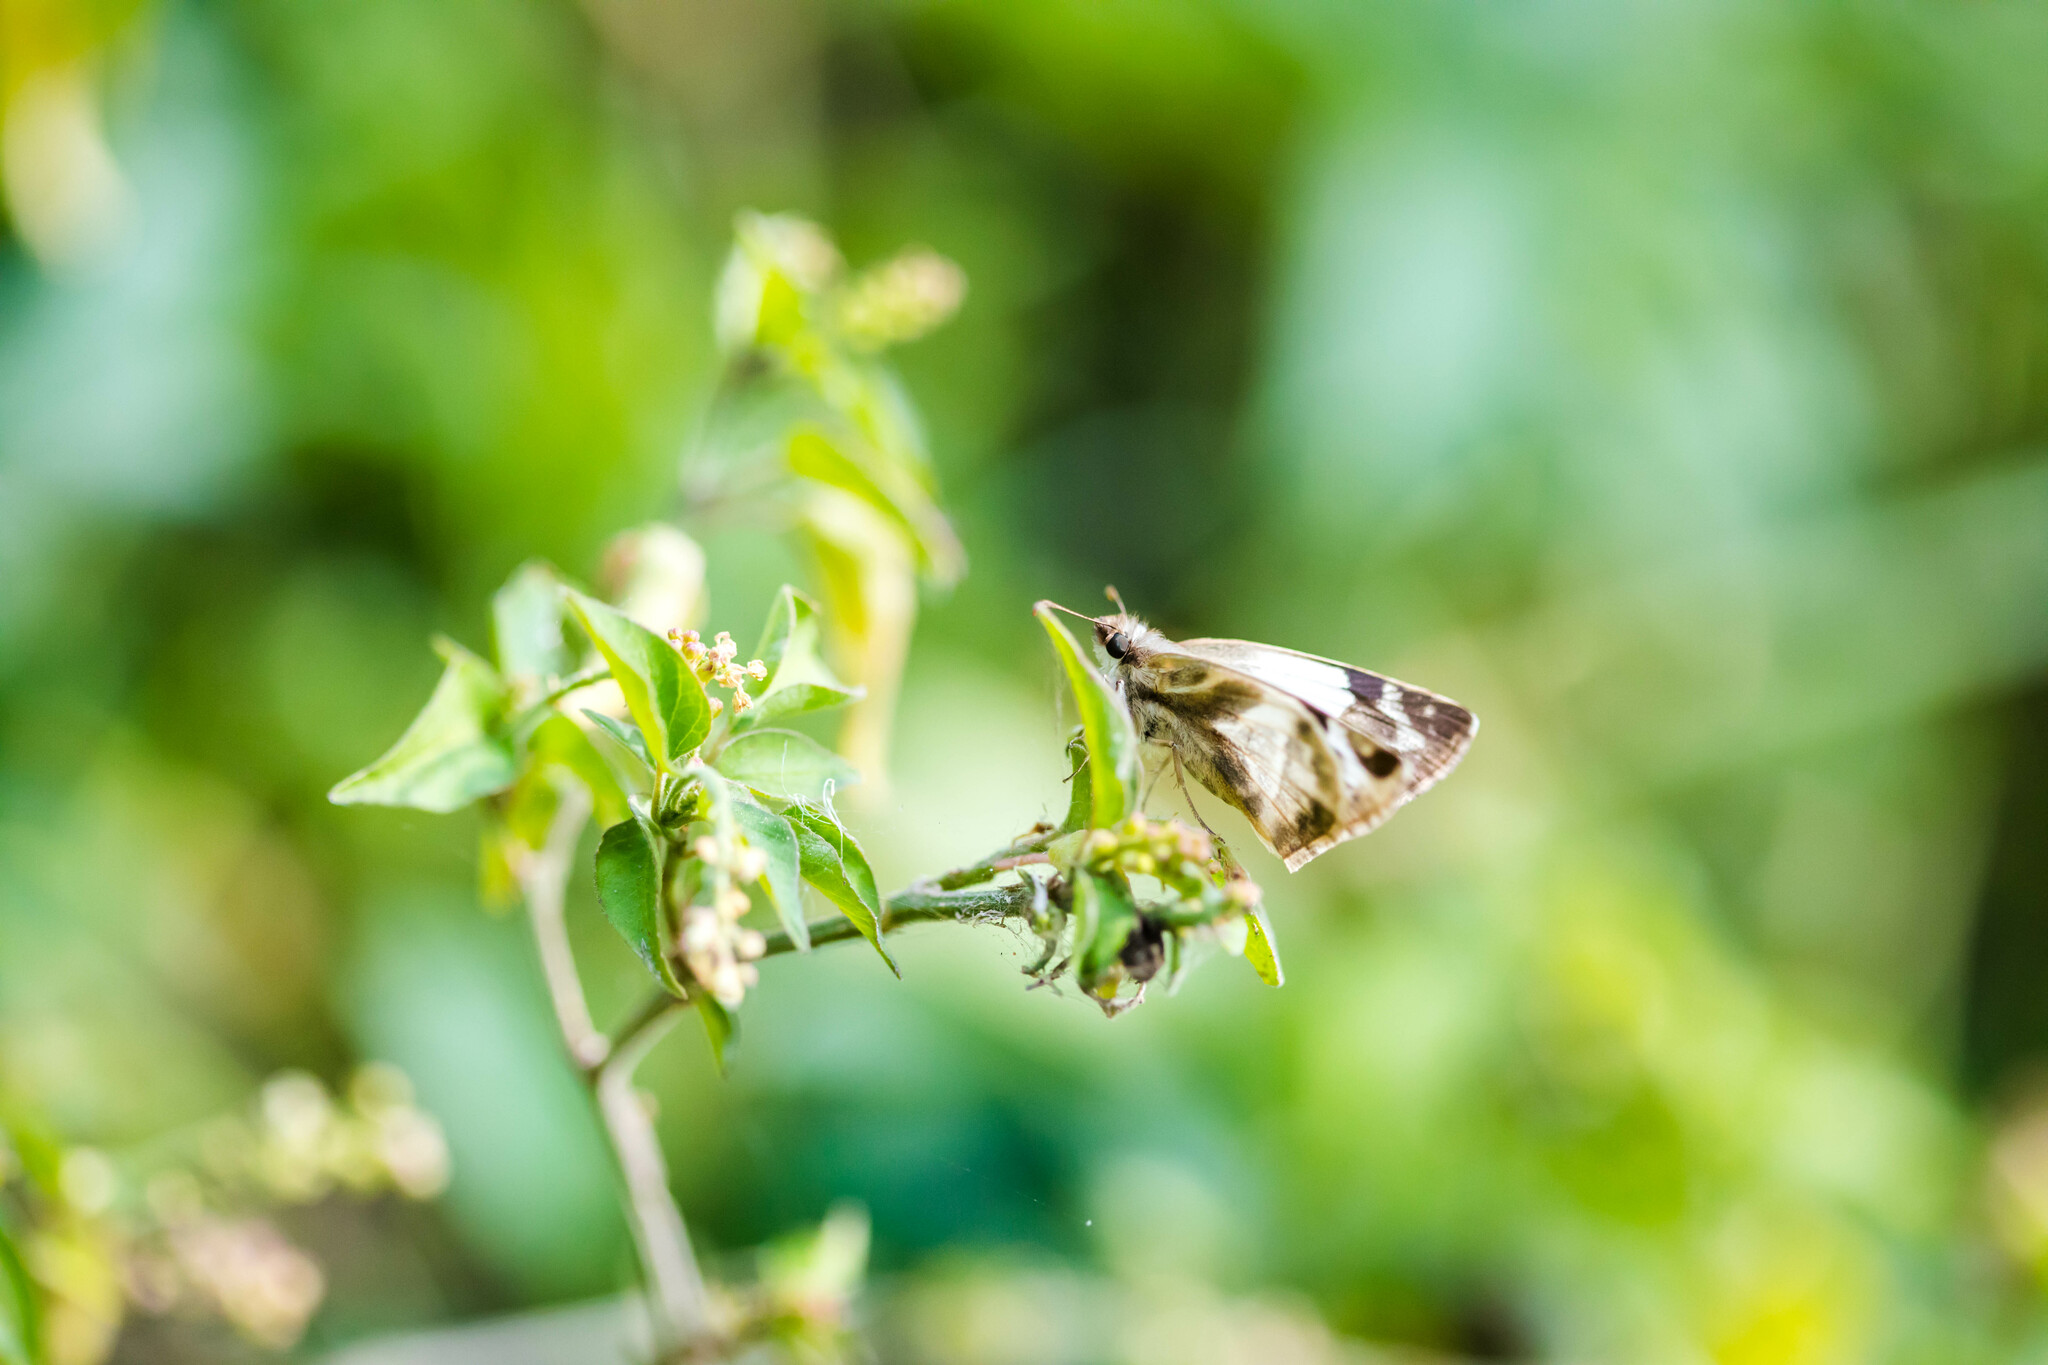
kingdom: Animalia
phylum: Arthropoda
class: Insecta
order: Lepidoptera
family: Hesperiidae
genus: Heliopetes
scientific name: Heliopetes laviana
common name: Laviana white-skipper
